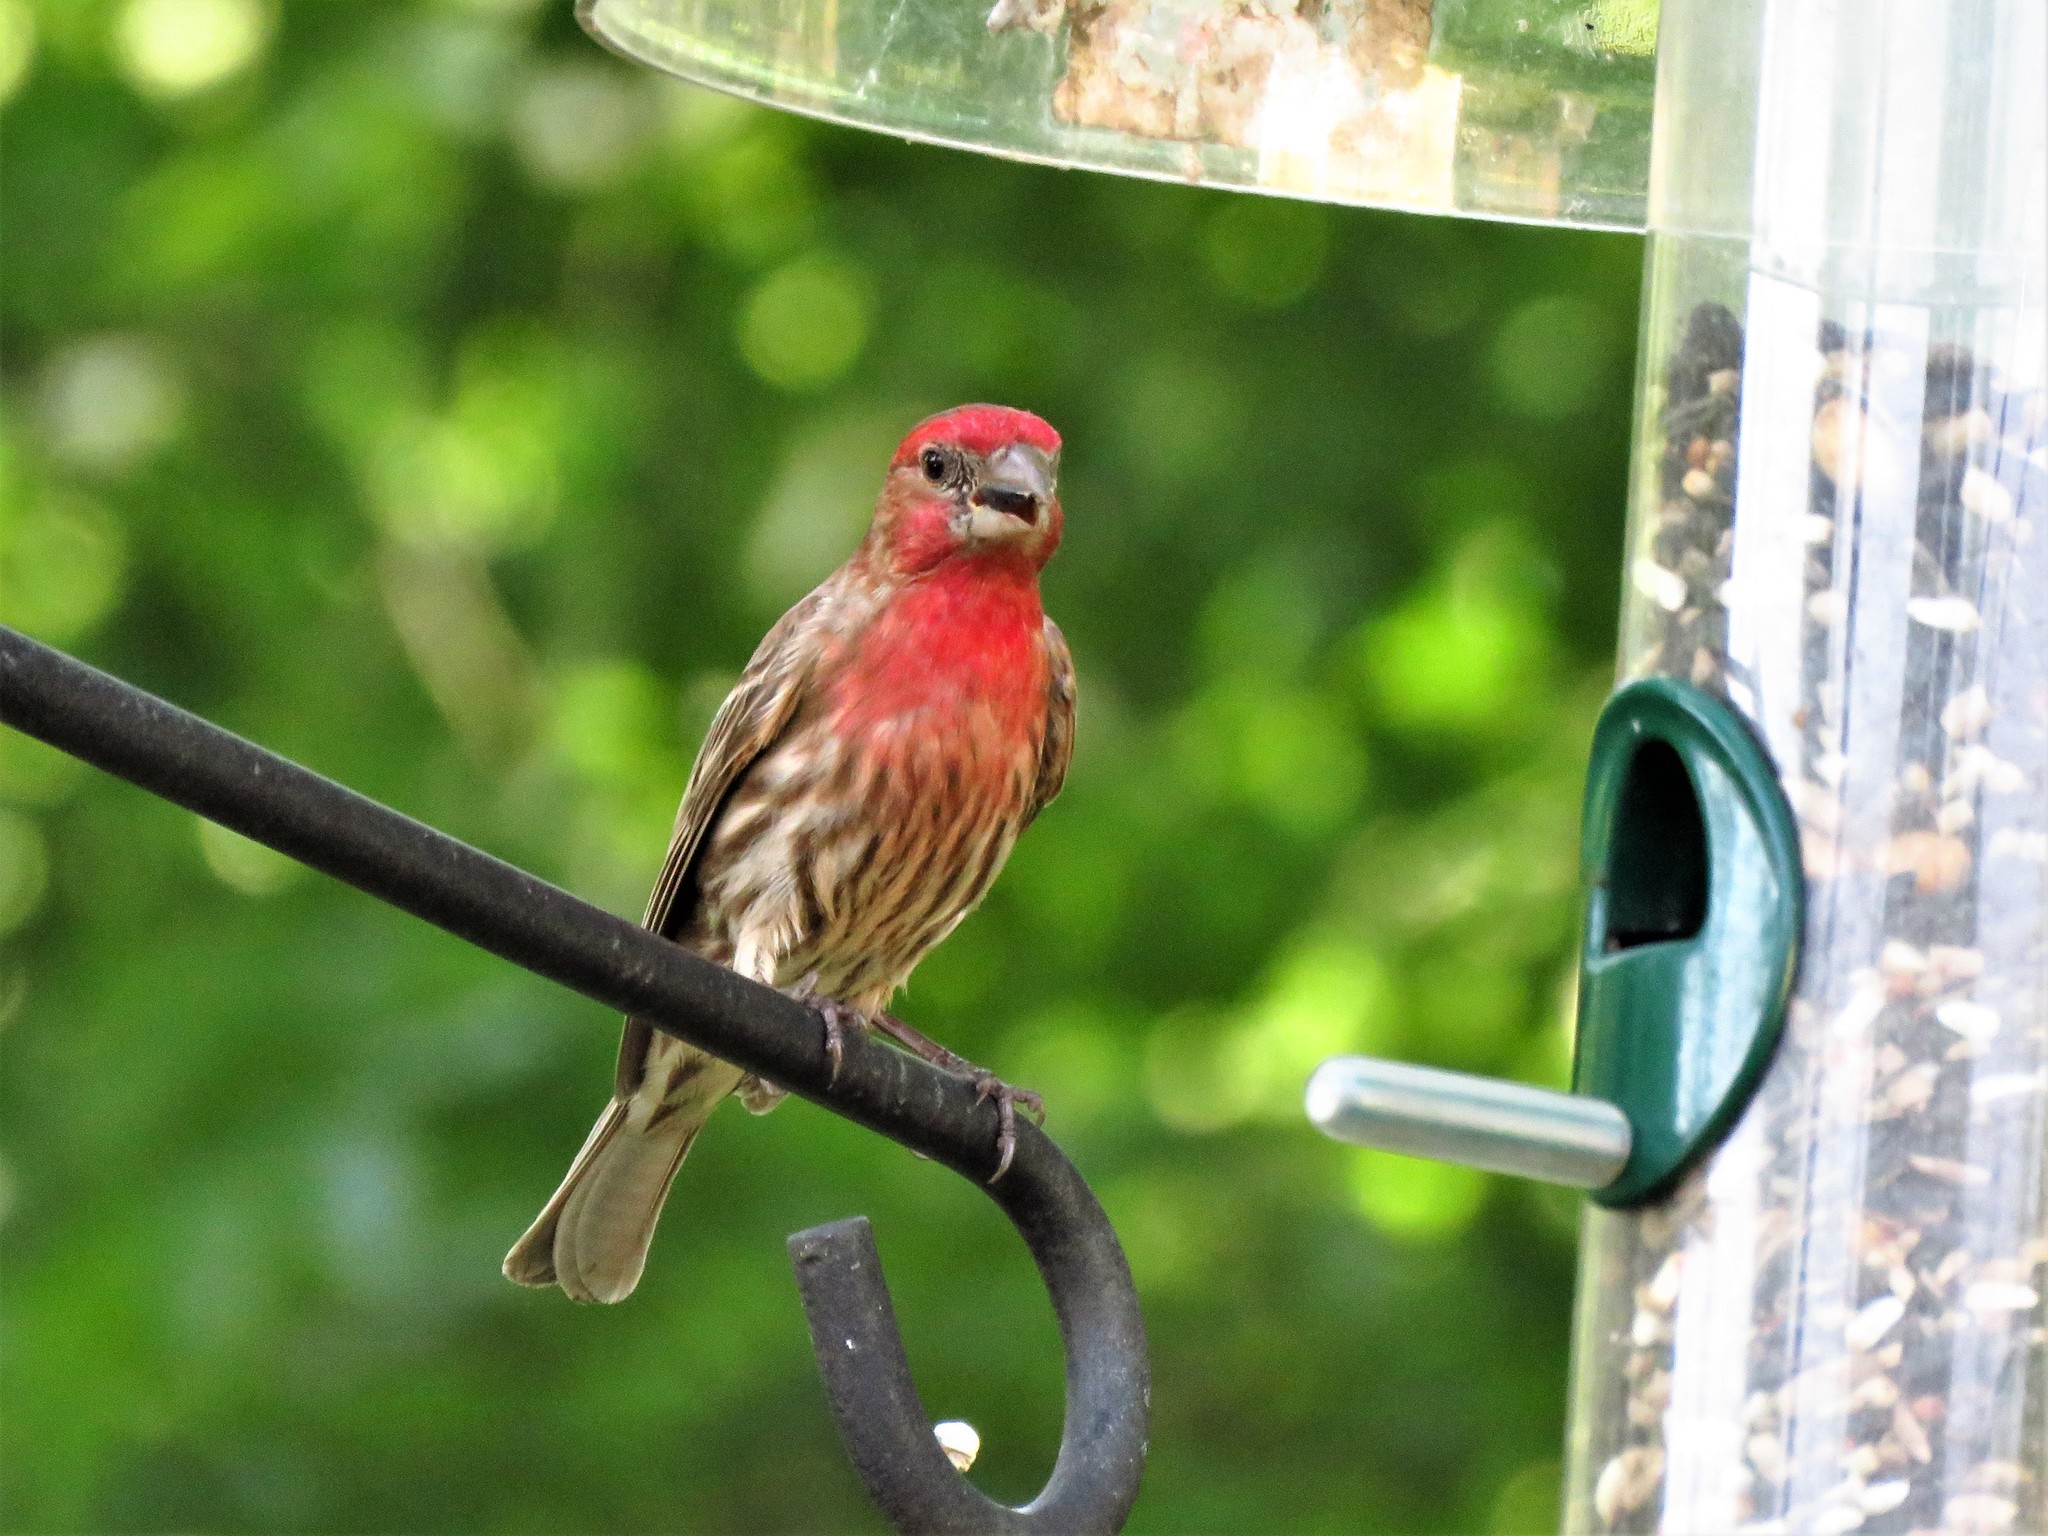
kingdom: Animalia
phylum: Chordata
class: Aves
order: Passeriformes
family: Fringillidae
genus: Haemorhous
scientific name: Haemorhous mexicanus
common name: House finch
